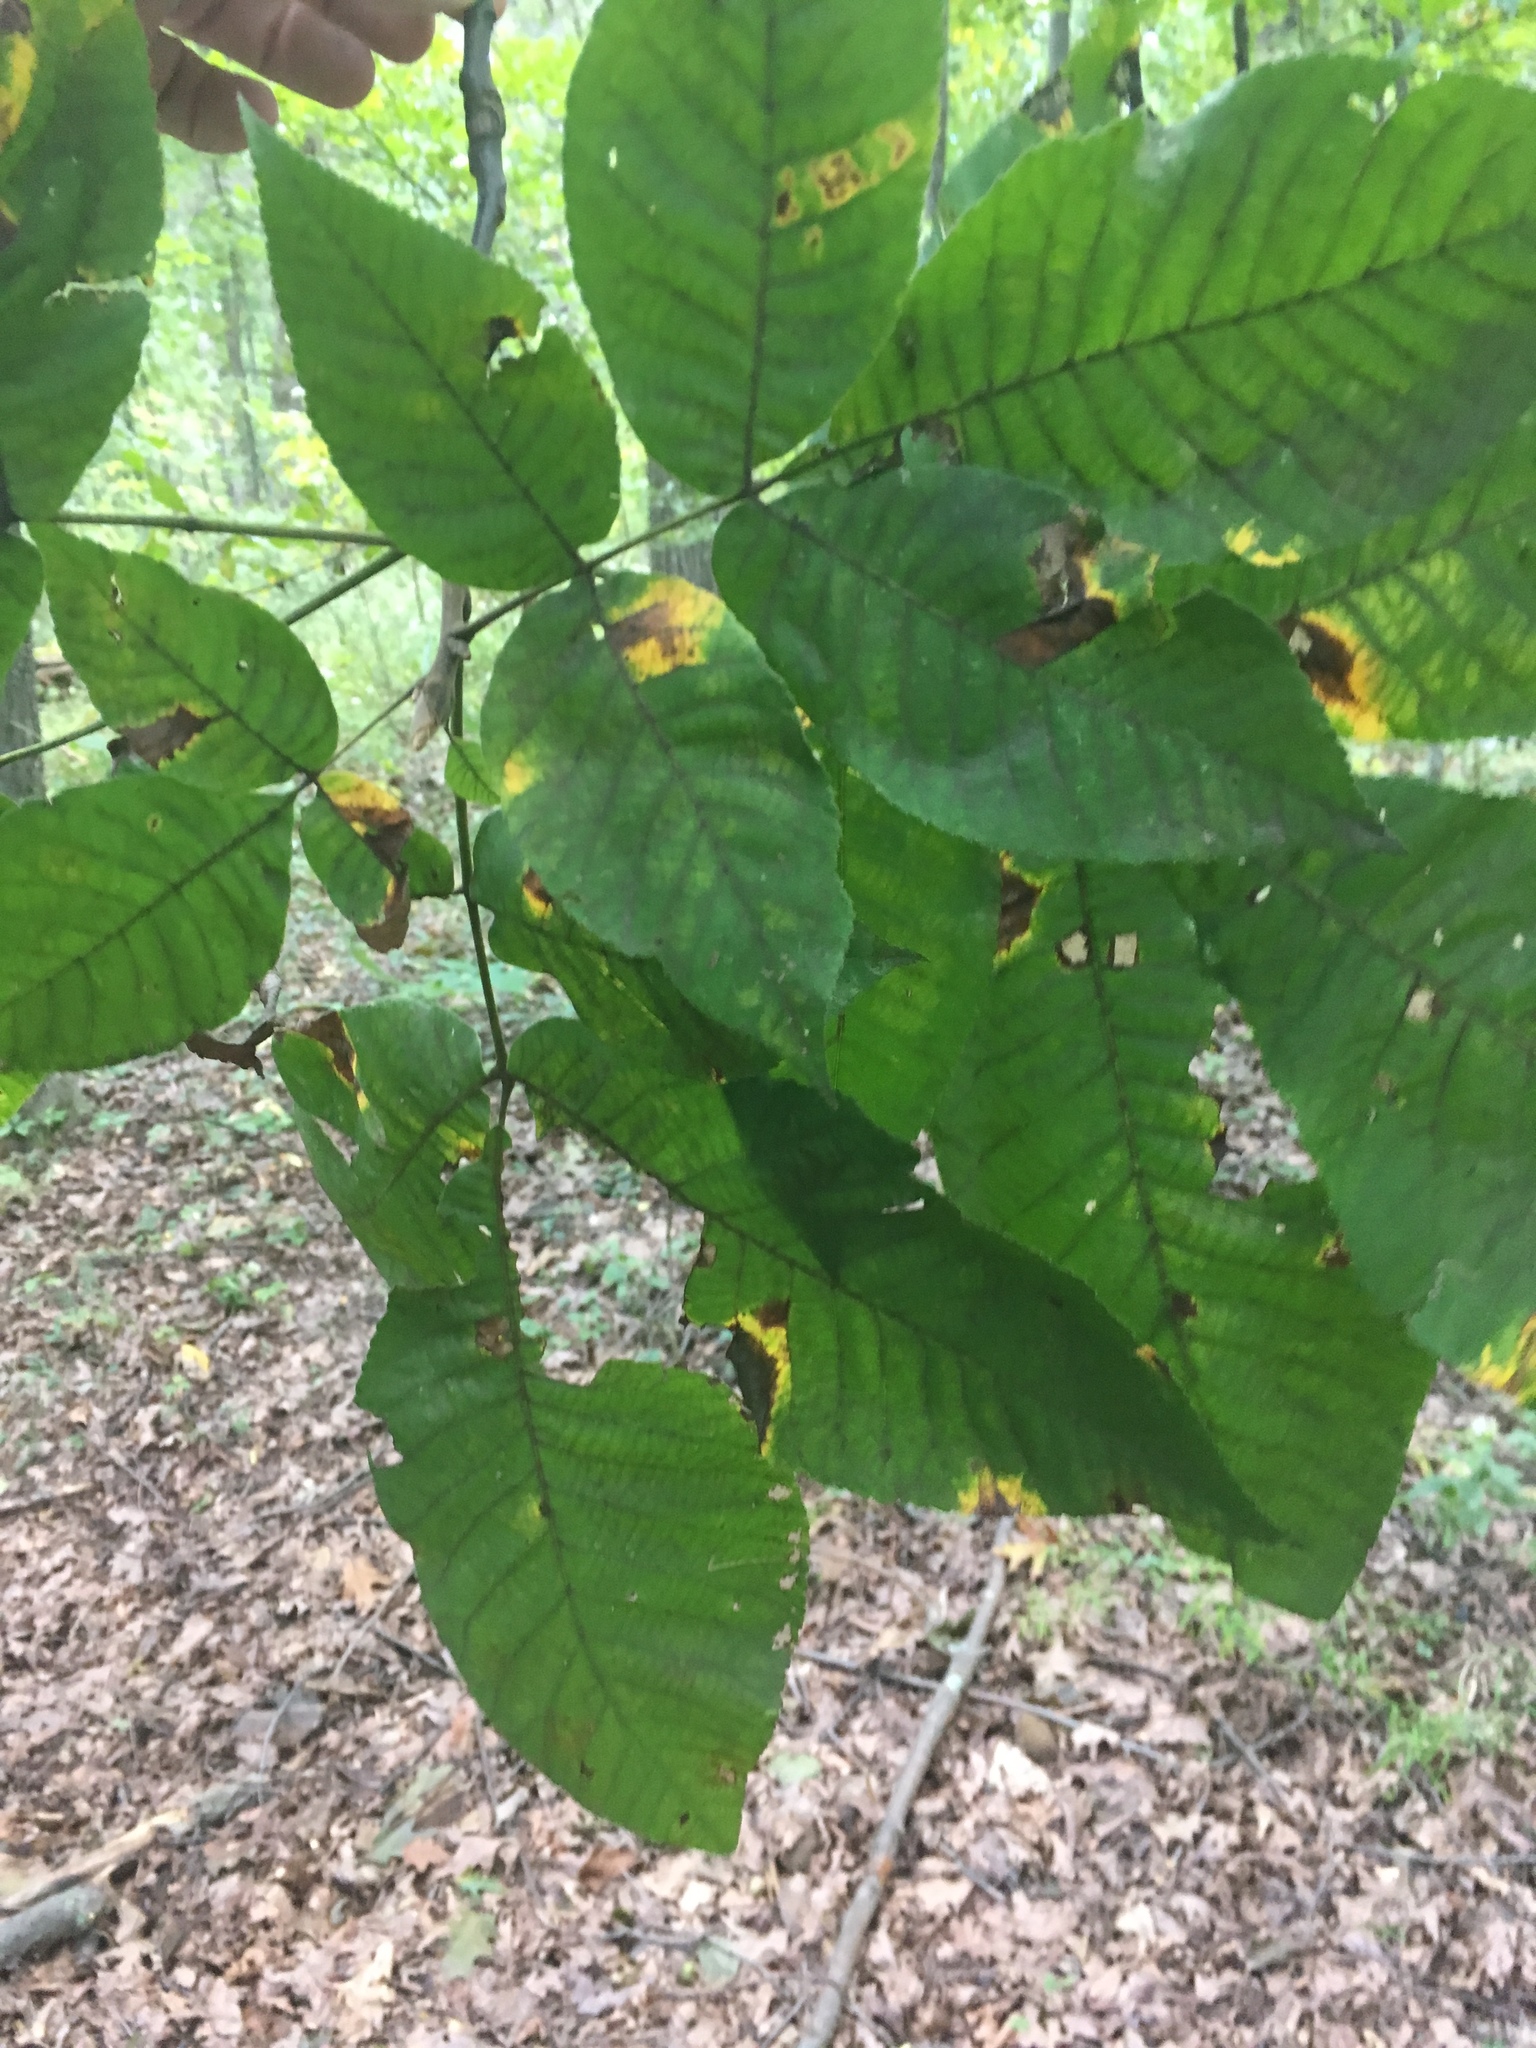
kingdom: Plantae
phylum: Tracheophyta
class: Magnoliopsida
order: Fagales
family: Juglandaceae
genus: Carya
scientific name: Carya ovata
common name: Shagbark hickory
